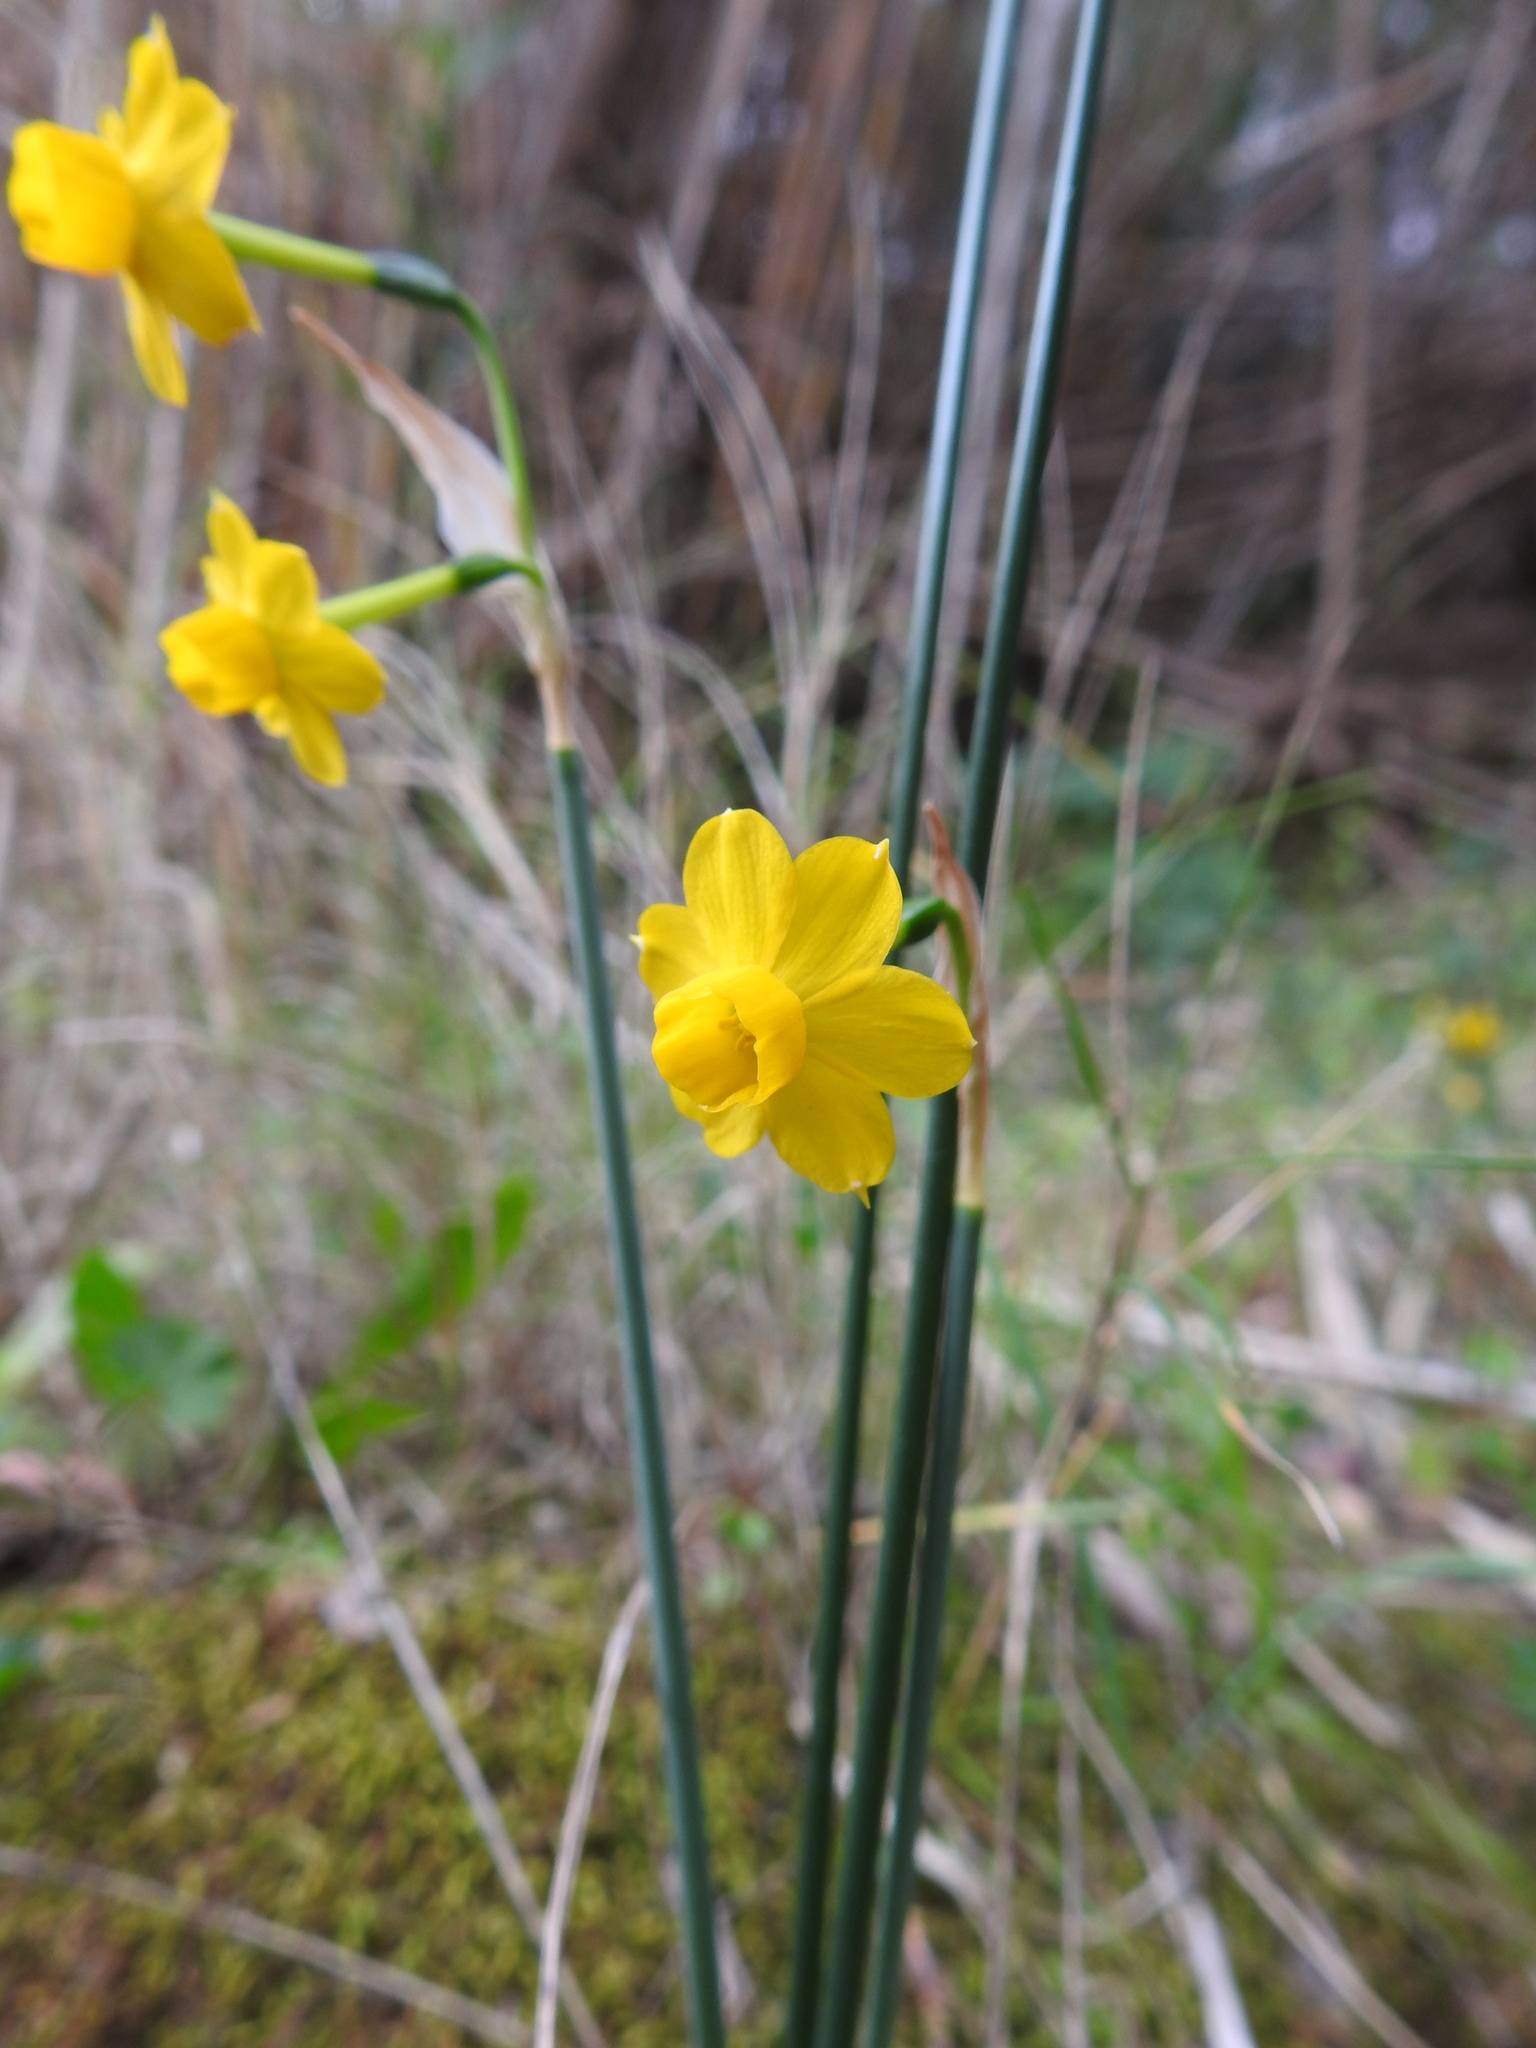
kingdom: Plantae
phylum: Tracheophyta
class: Liliopsida
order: Asparagales
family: Amaryllidaceae
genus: Narcissus
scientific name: Narcissus willkommii
